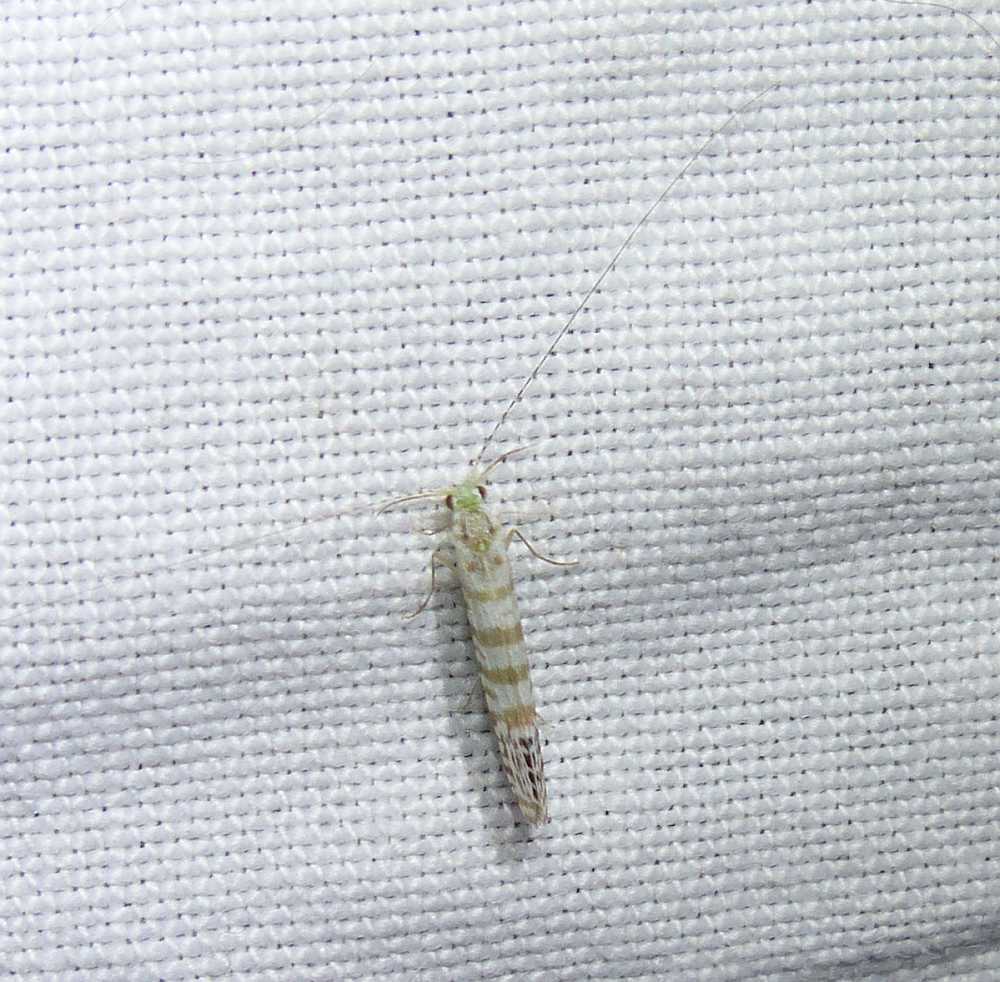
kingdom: Animalia
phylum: Arthropoda
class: Insecta
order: Trichoptera
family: Leptoceridae
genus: Nectopsyche
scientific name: Nectopsyche exquisita
